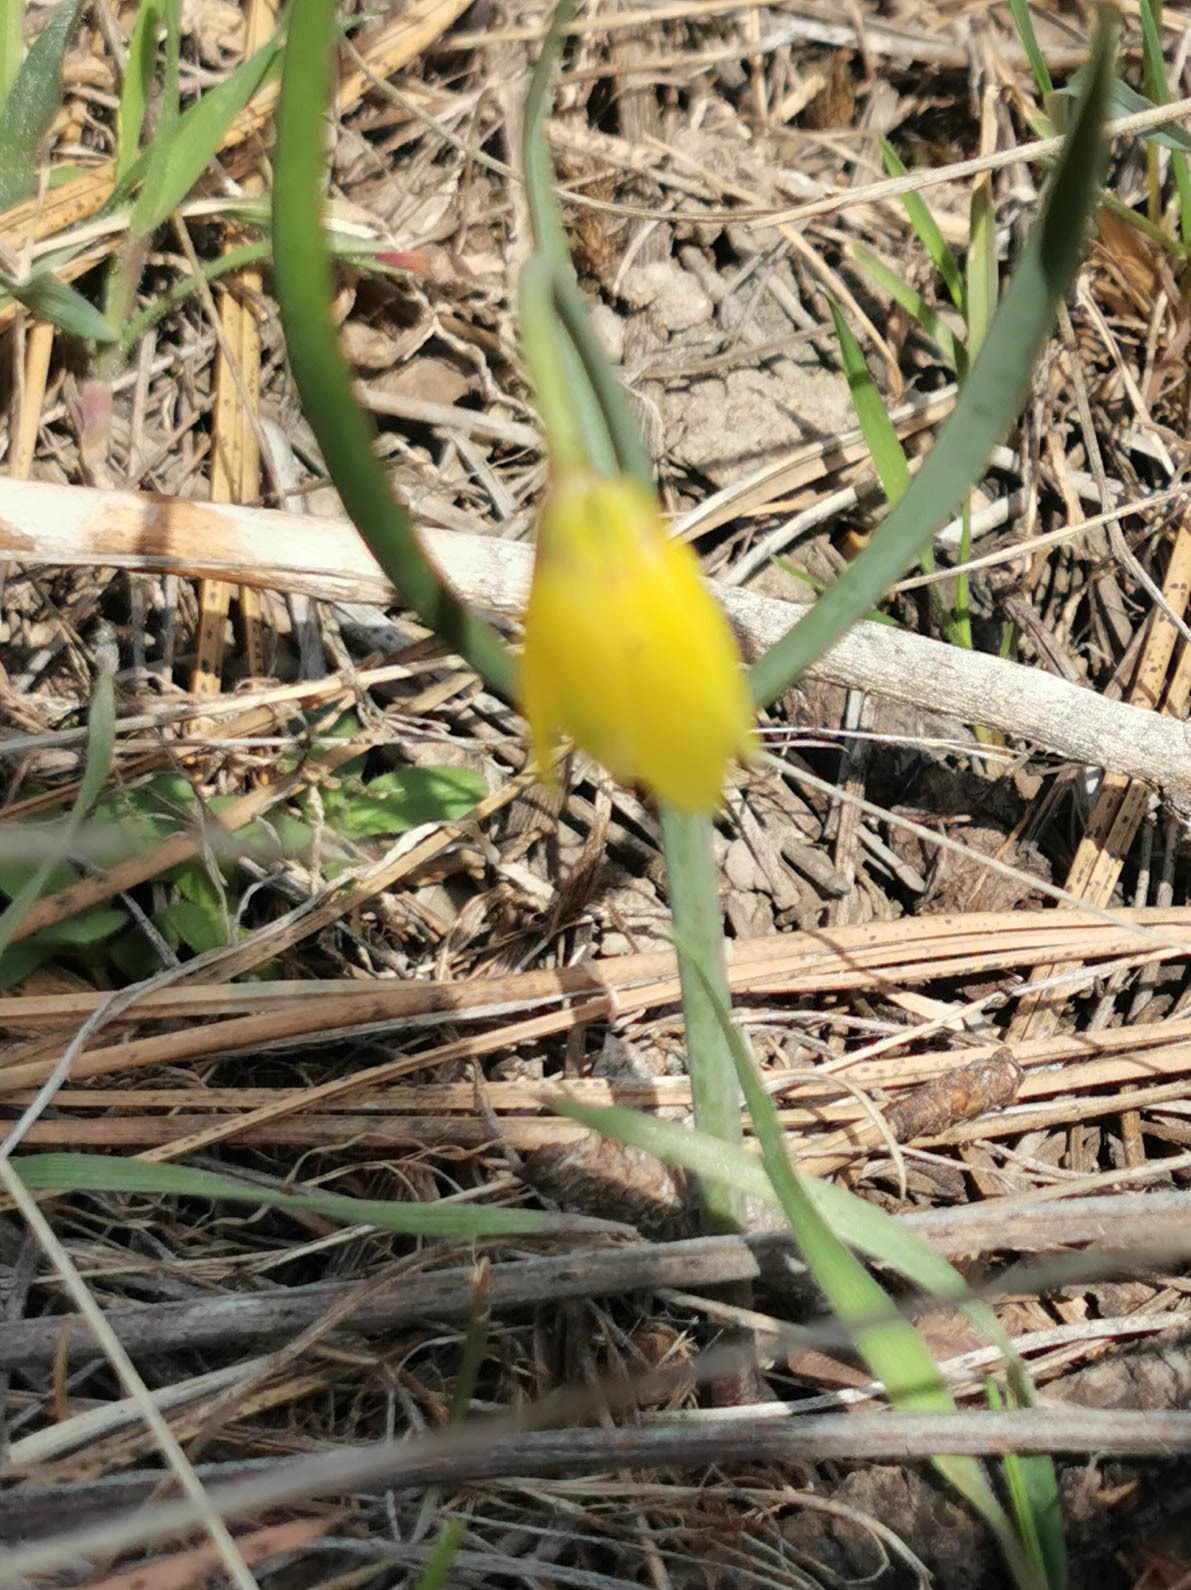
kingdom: Plantae
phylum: Tracheophyta
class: Liliopsida
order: Liliales
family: Liliaceae
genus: Fritillaria
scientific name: Fritillaria pudica
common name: Yellow fritillary
